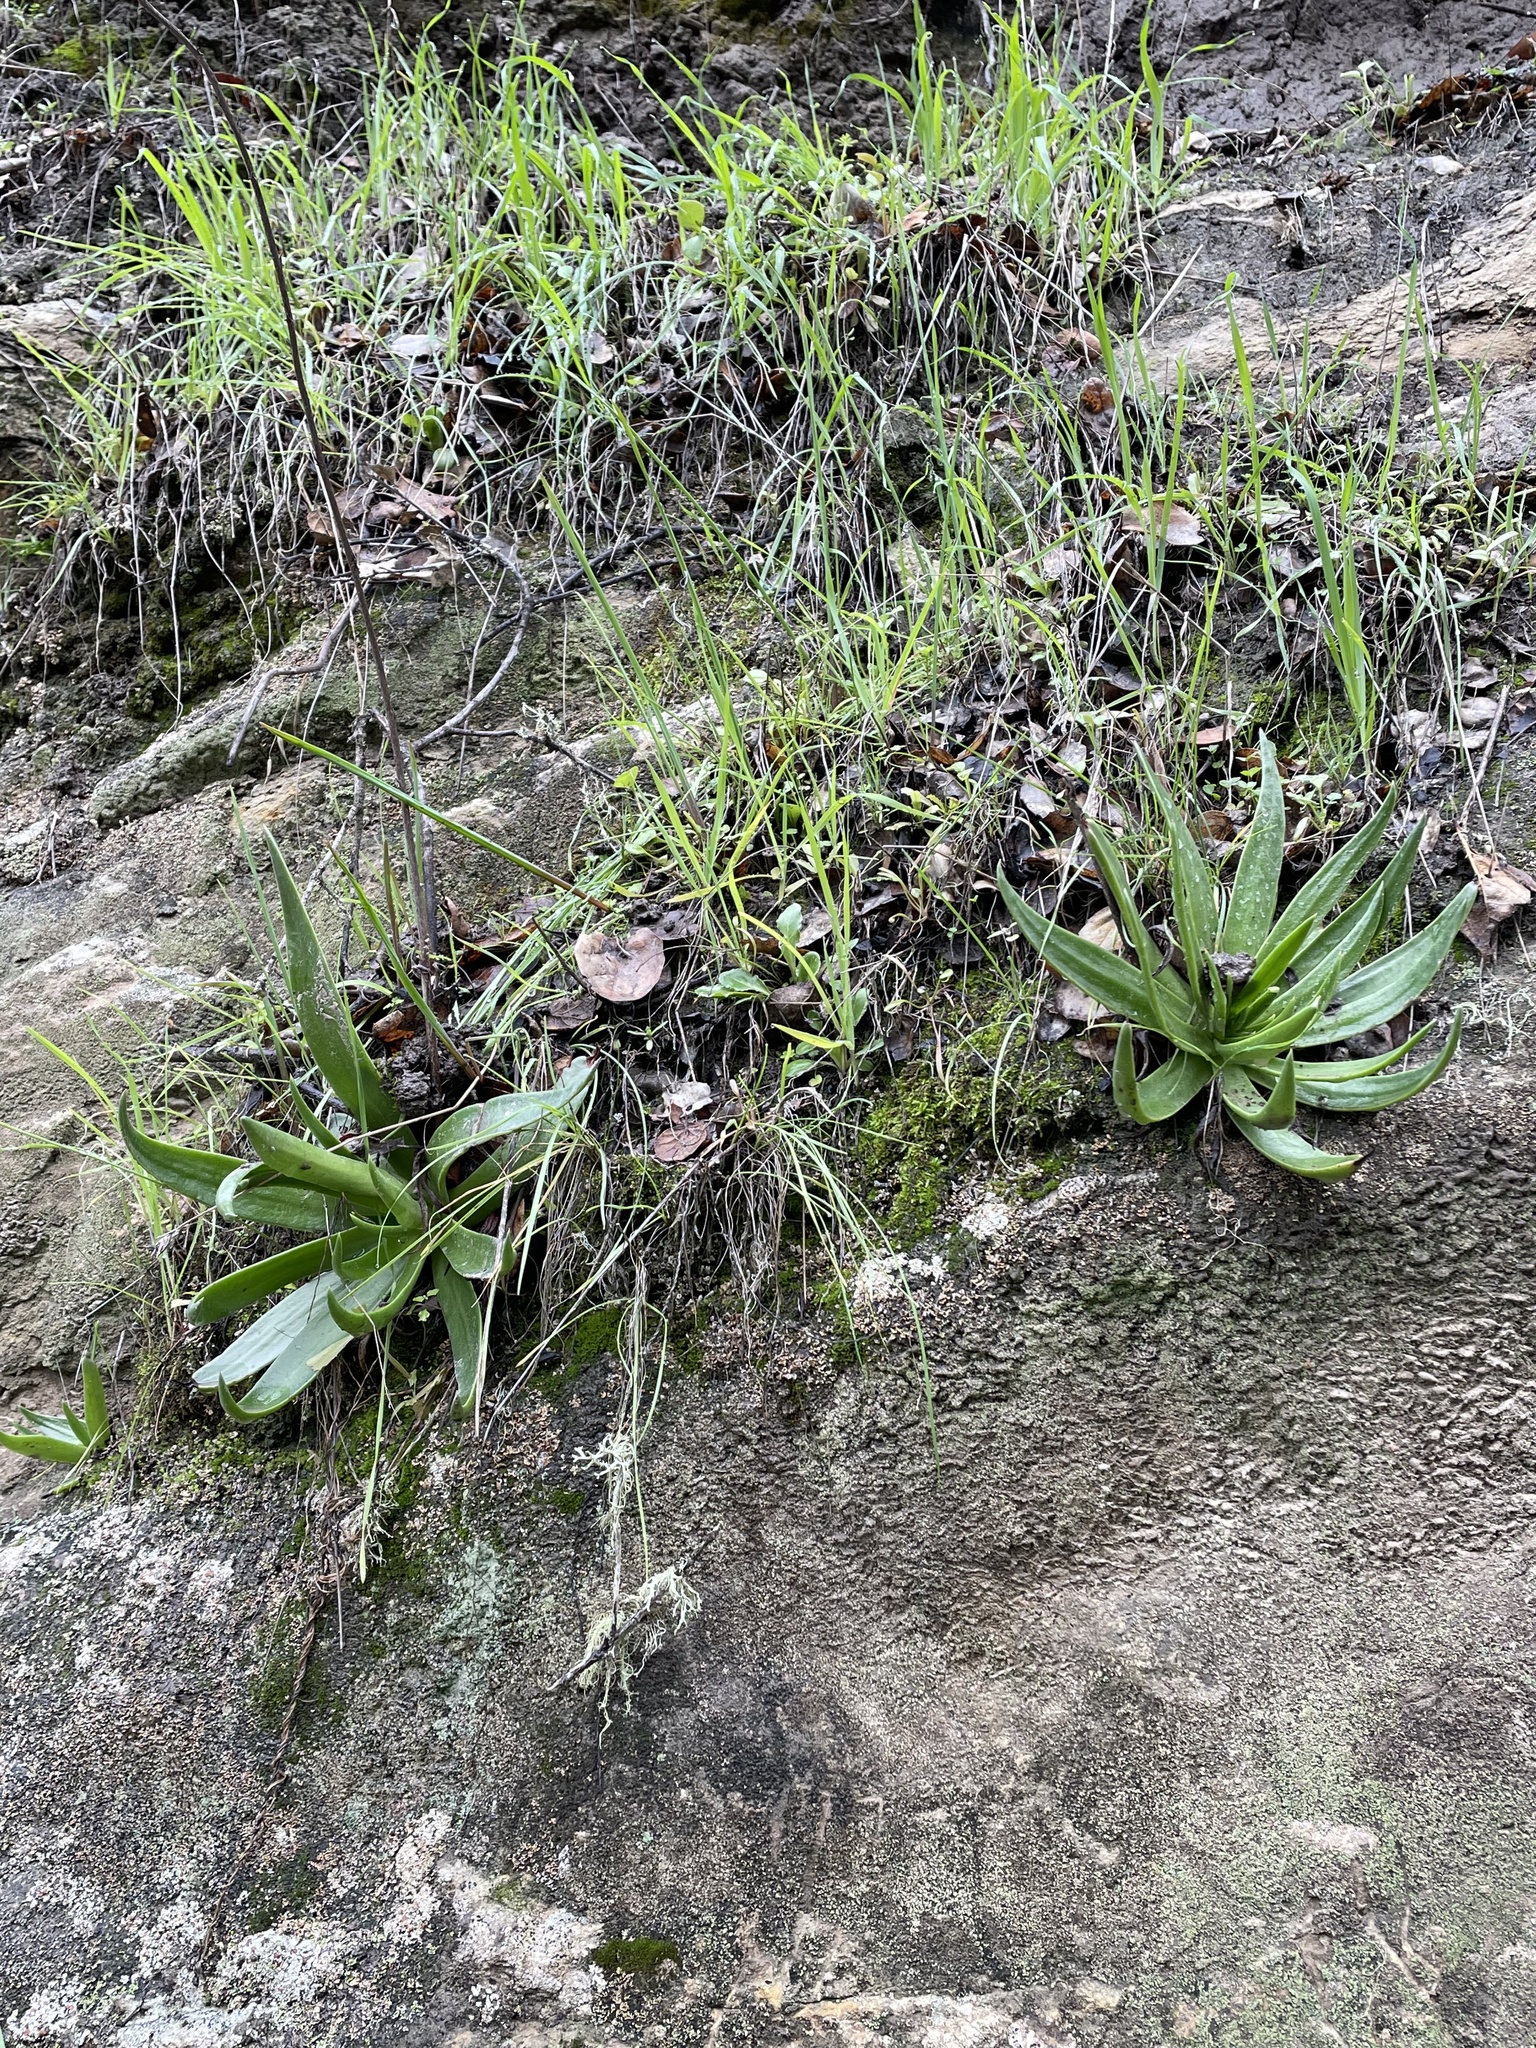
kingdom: Plantae
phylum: Tracheophyta
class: Magnoliopsida
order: Saxifragales
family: Crassulaceae
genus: Dudleya
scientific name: Dudleya lanceolata
